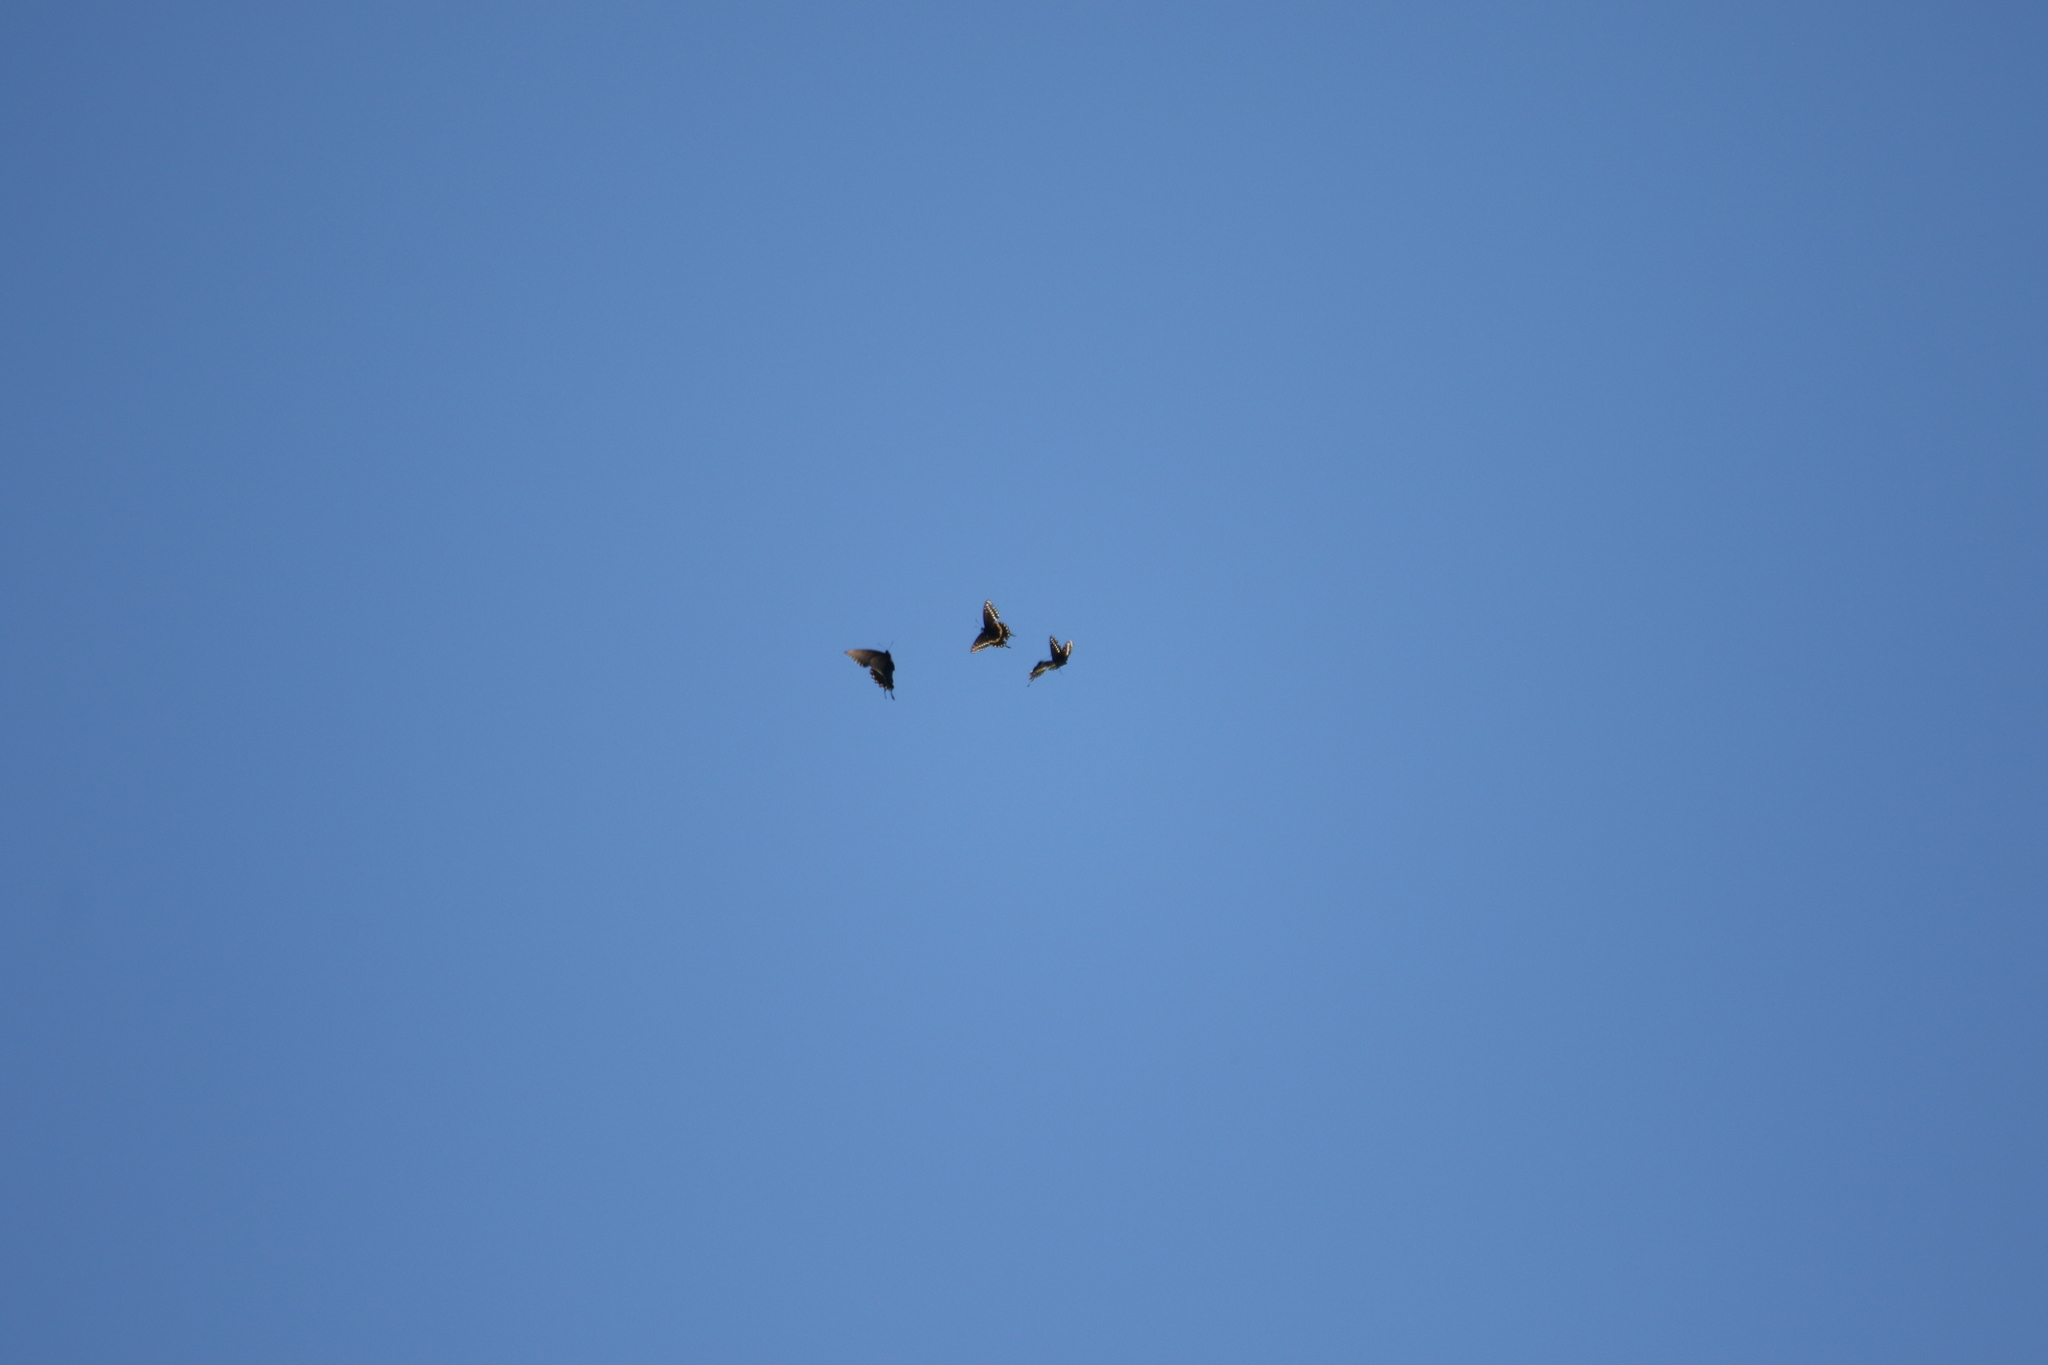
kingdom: Animalia
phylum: Arthropoda
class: Insecta
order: Lepidoptera
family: Papilionidae
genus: Papilio
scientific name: Papilio polyxenes
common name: Black swallowtail
